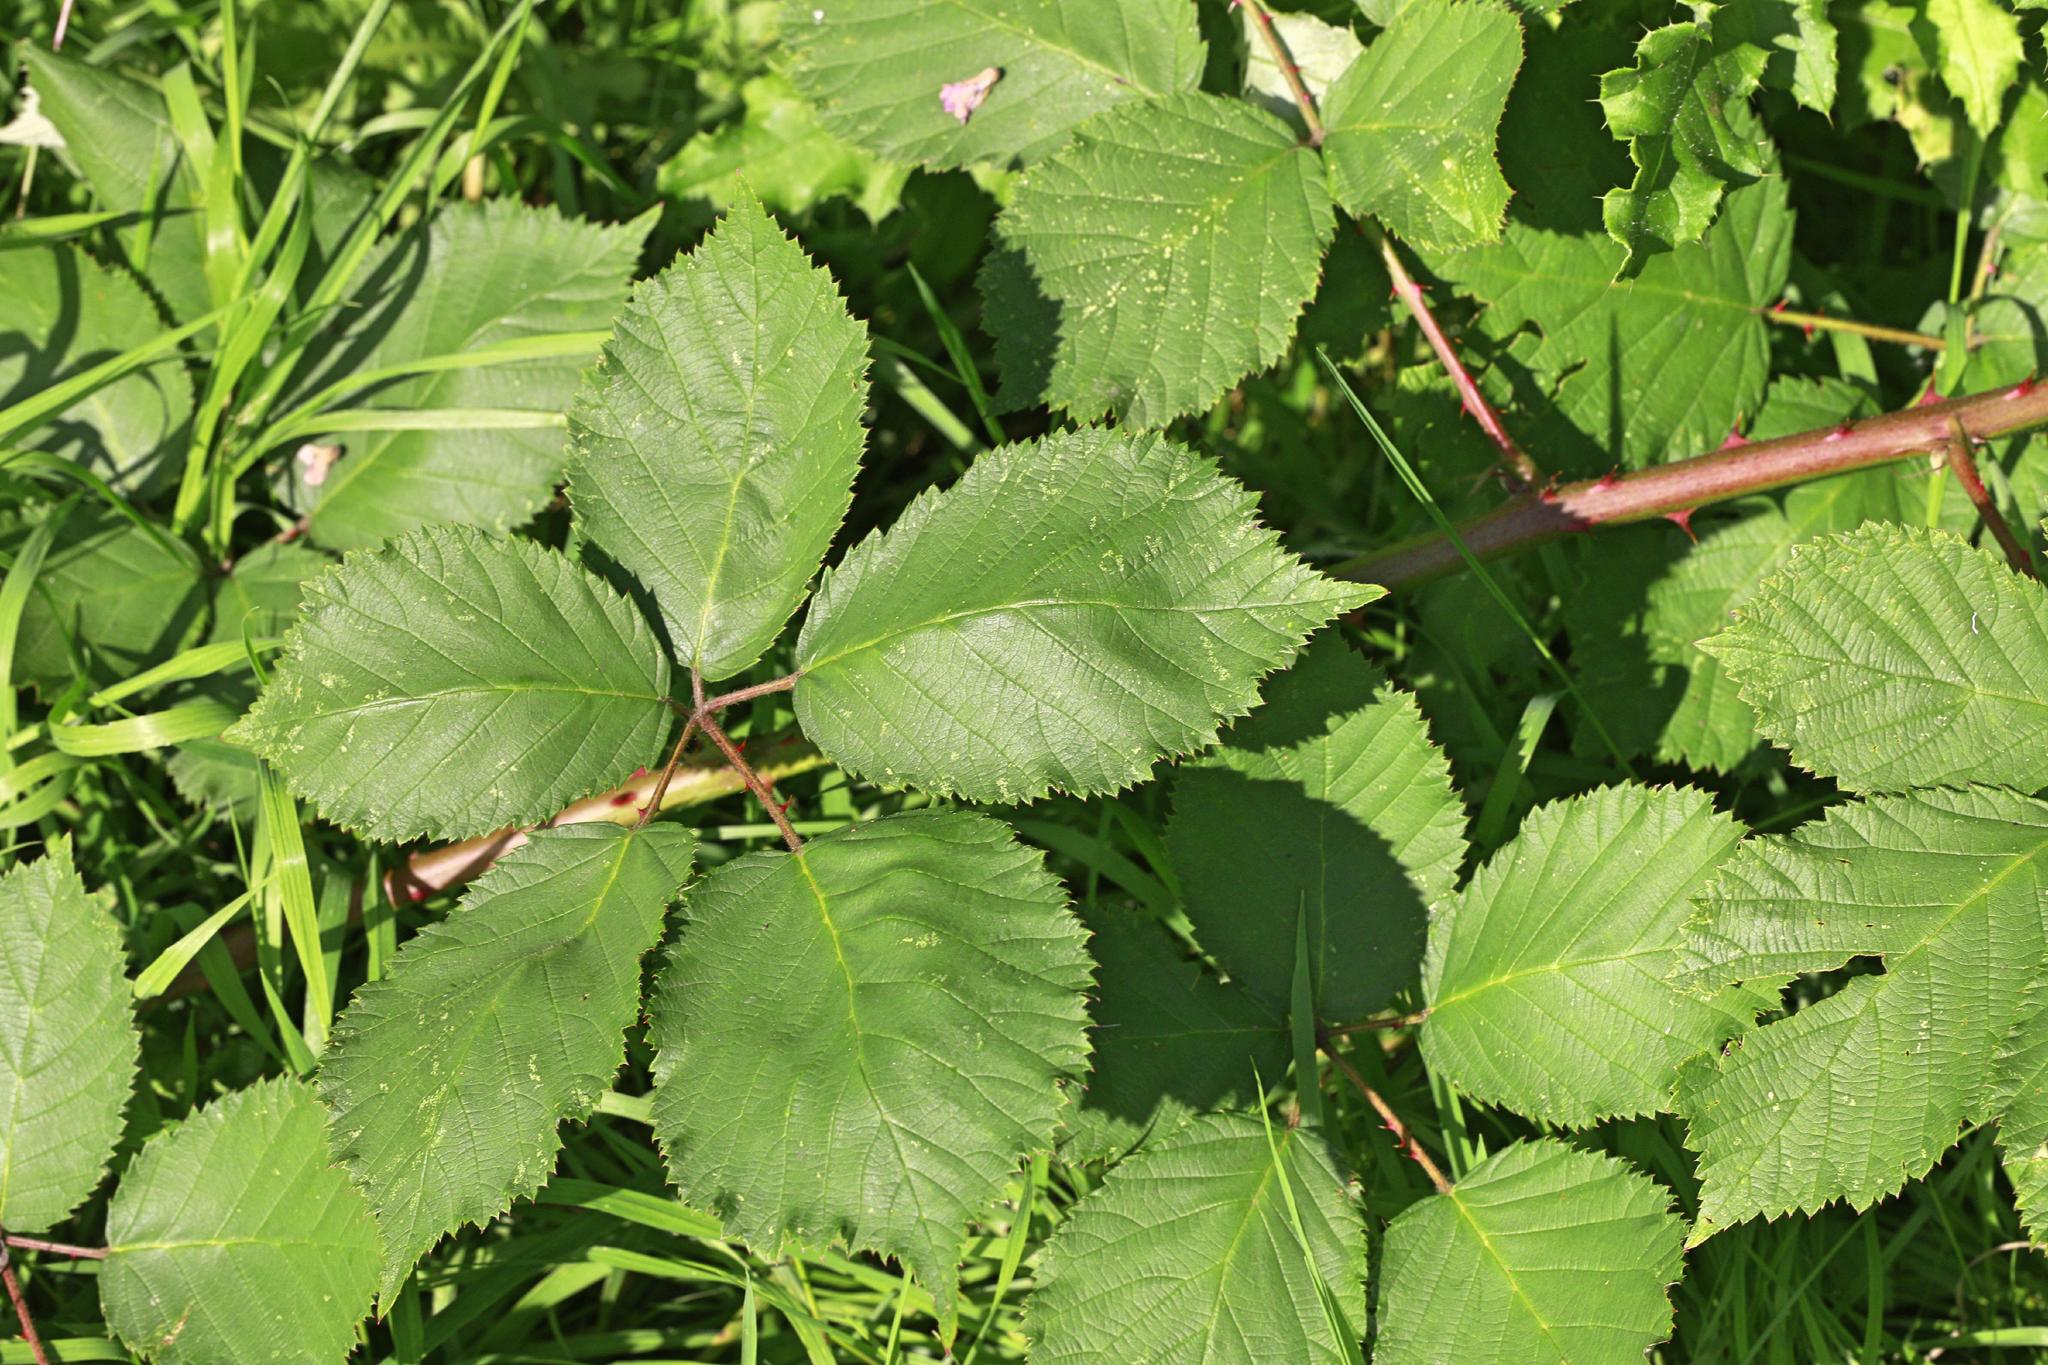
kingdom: Plantae
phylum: Tracheophyta
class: Magnoliopsida
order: Rosales
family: Rosaceae
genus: Rubus
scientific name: Rubus armeniacus
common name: Himalayan blackberry
